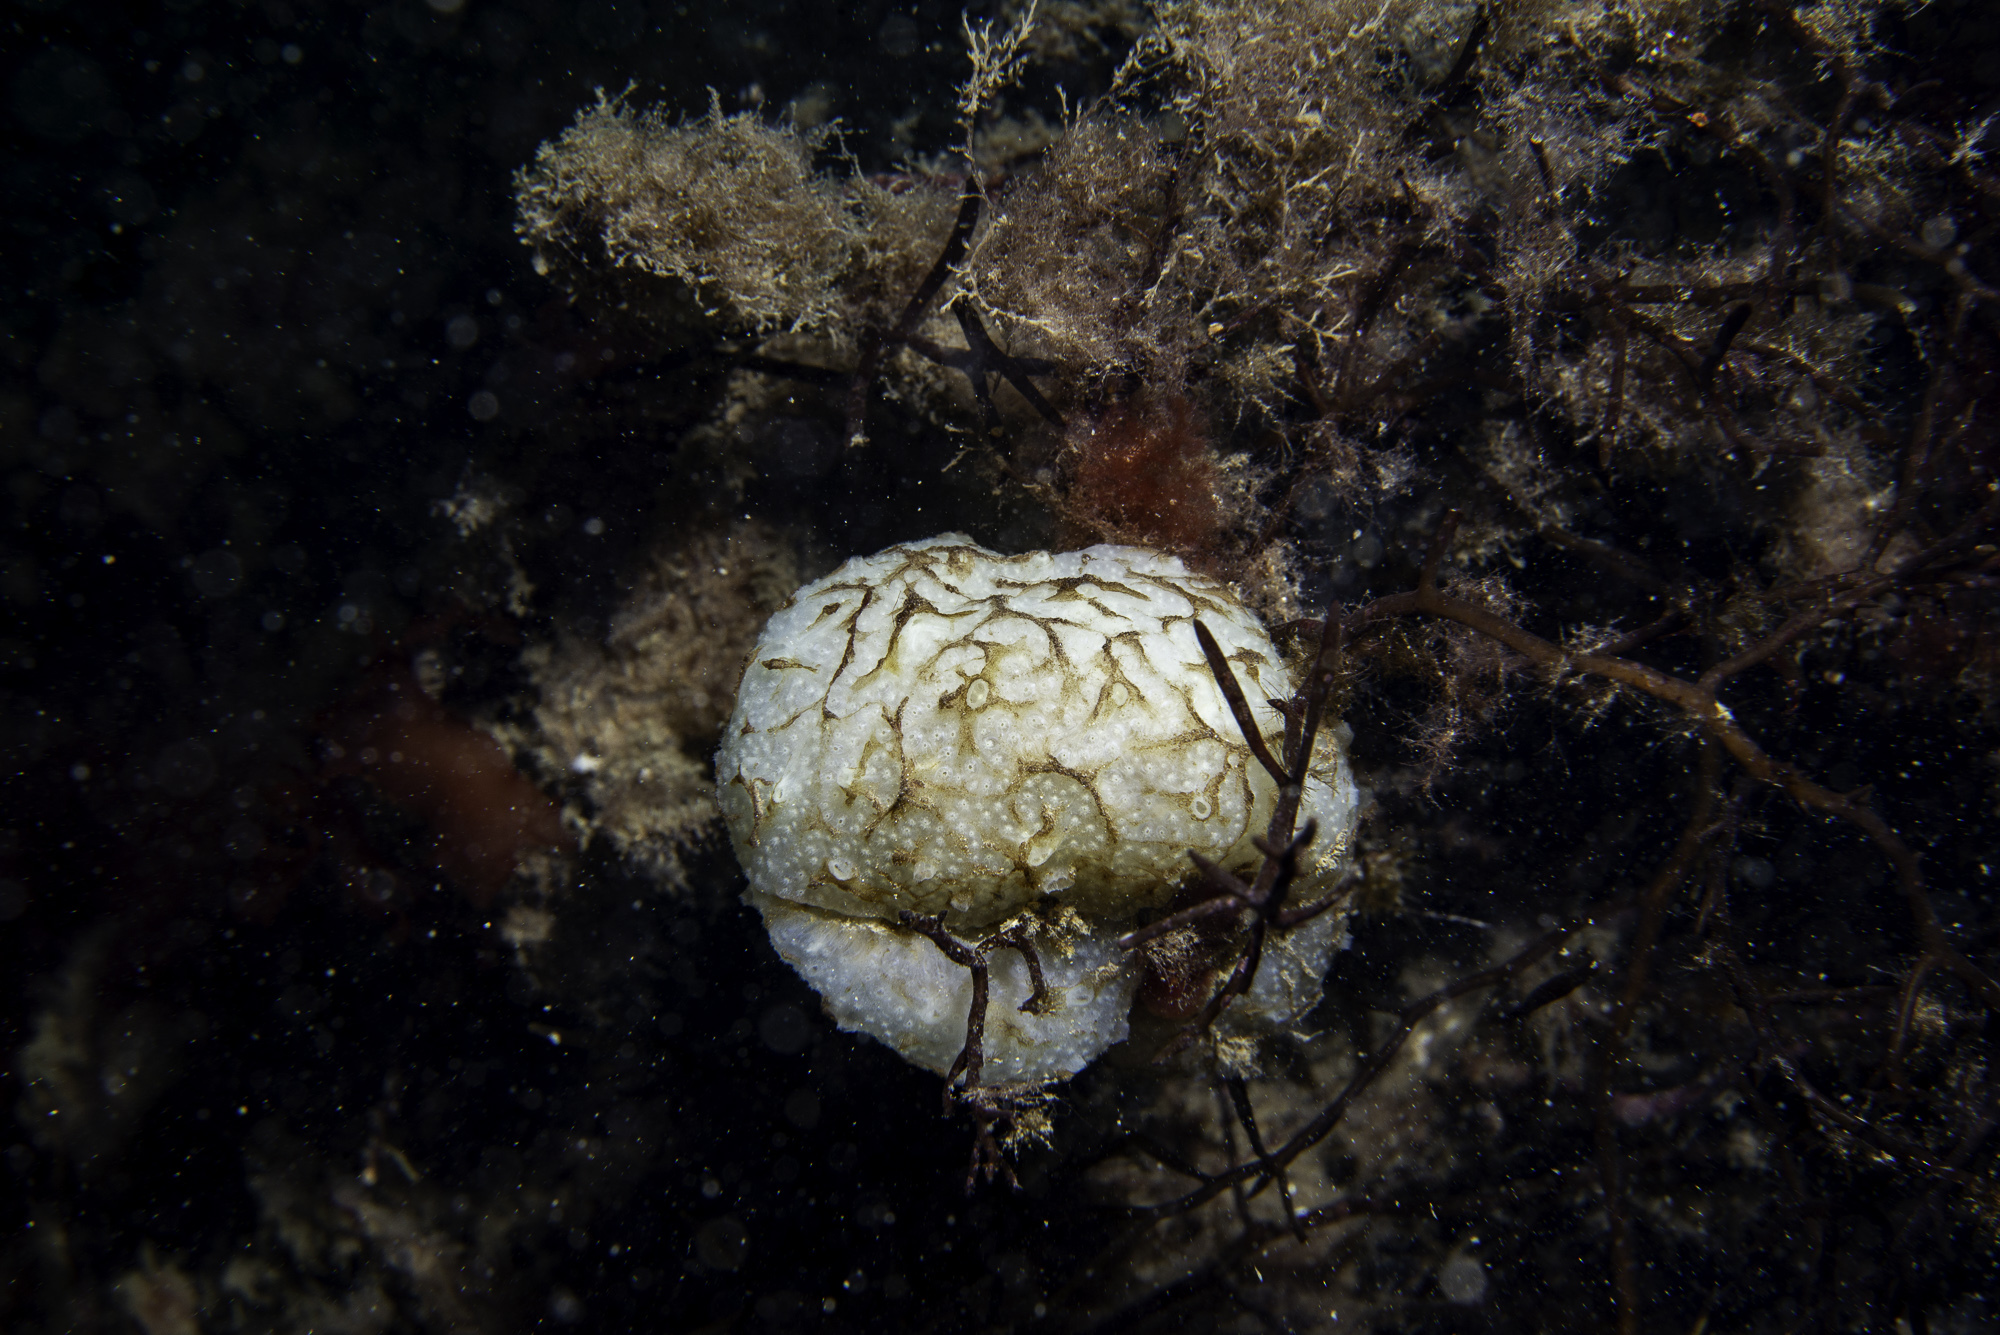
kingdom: Animalia
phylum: Chordata
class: Ascidiacea
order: Aplousobranchia
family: Polyclinidae
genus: Polyclinum
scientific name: Polyclinum aurantium
